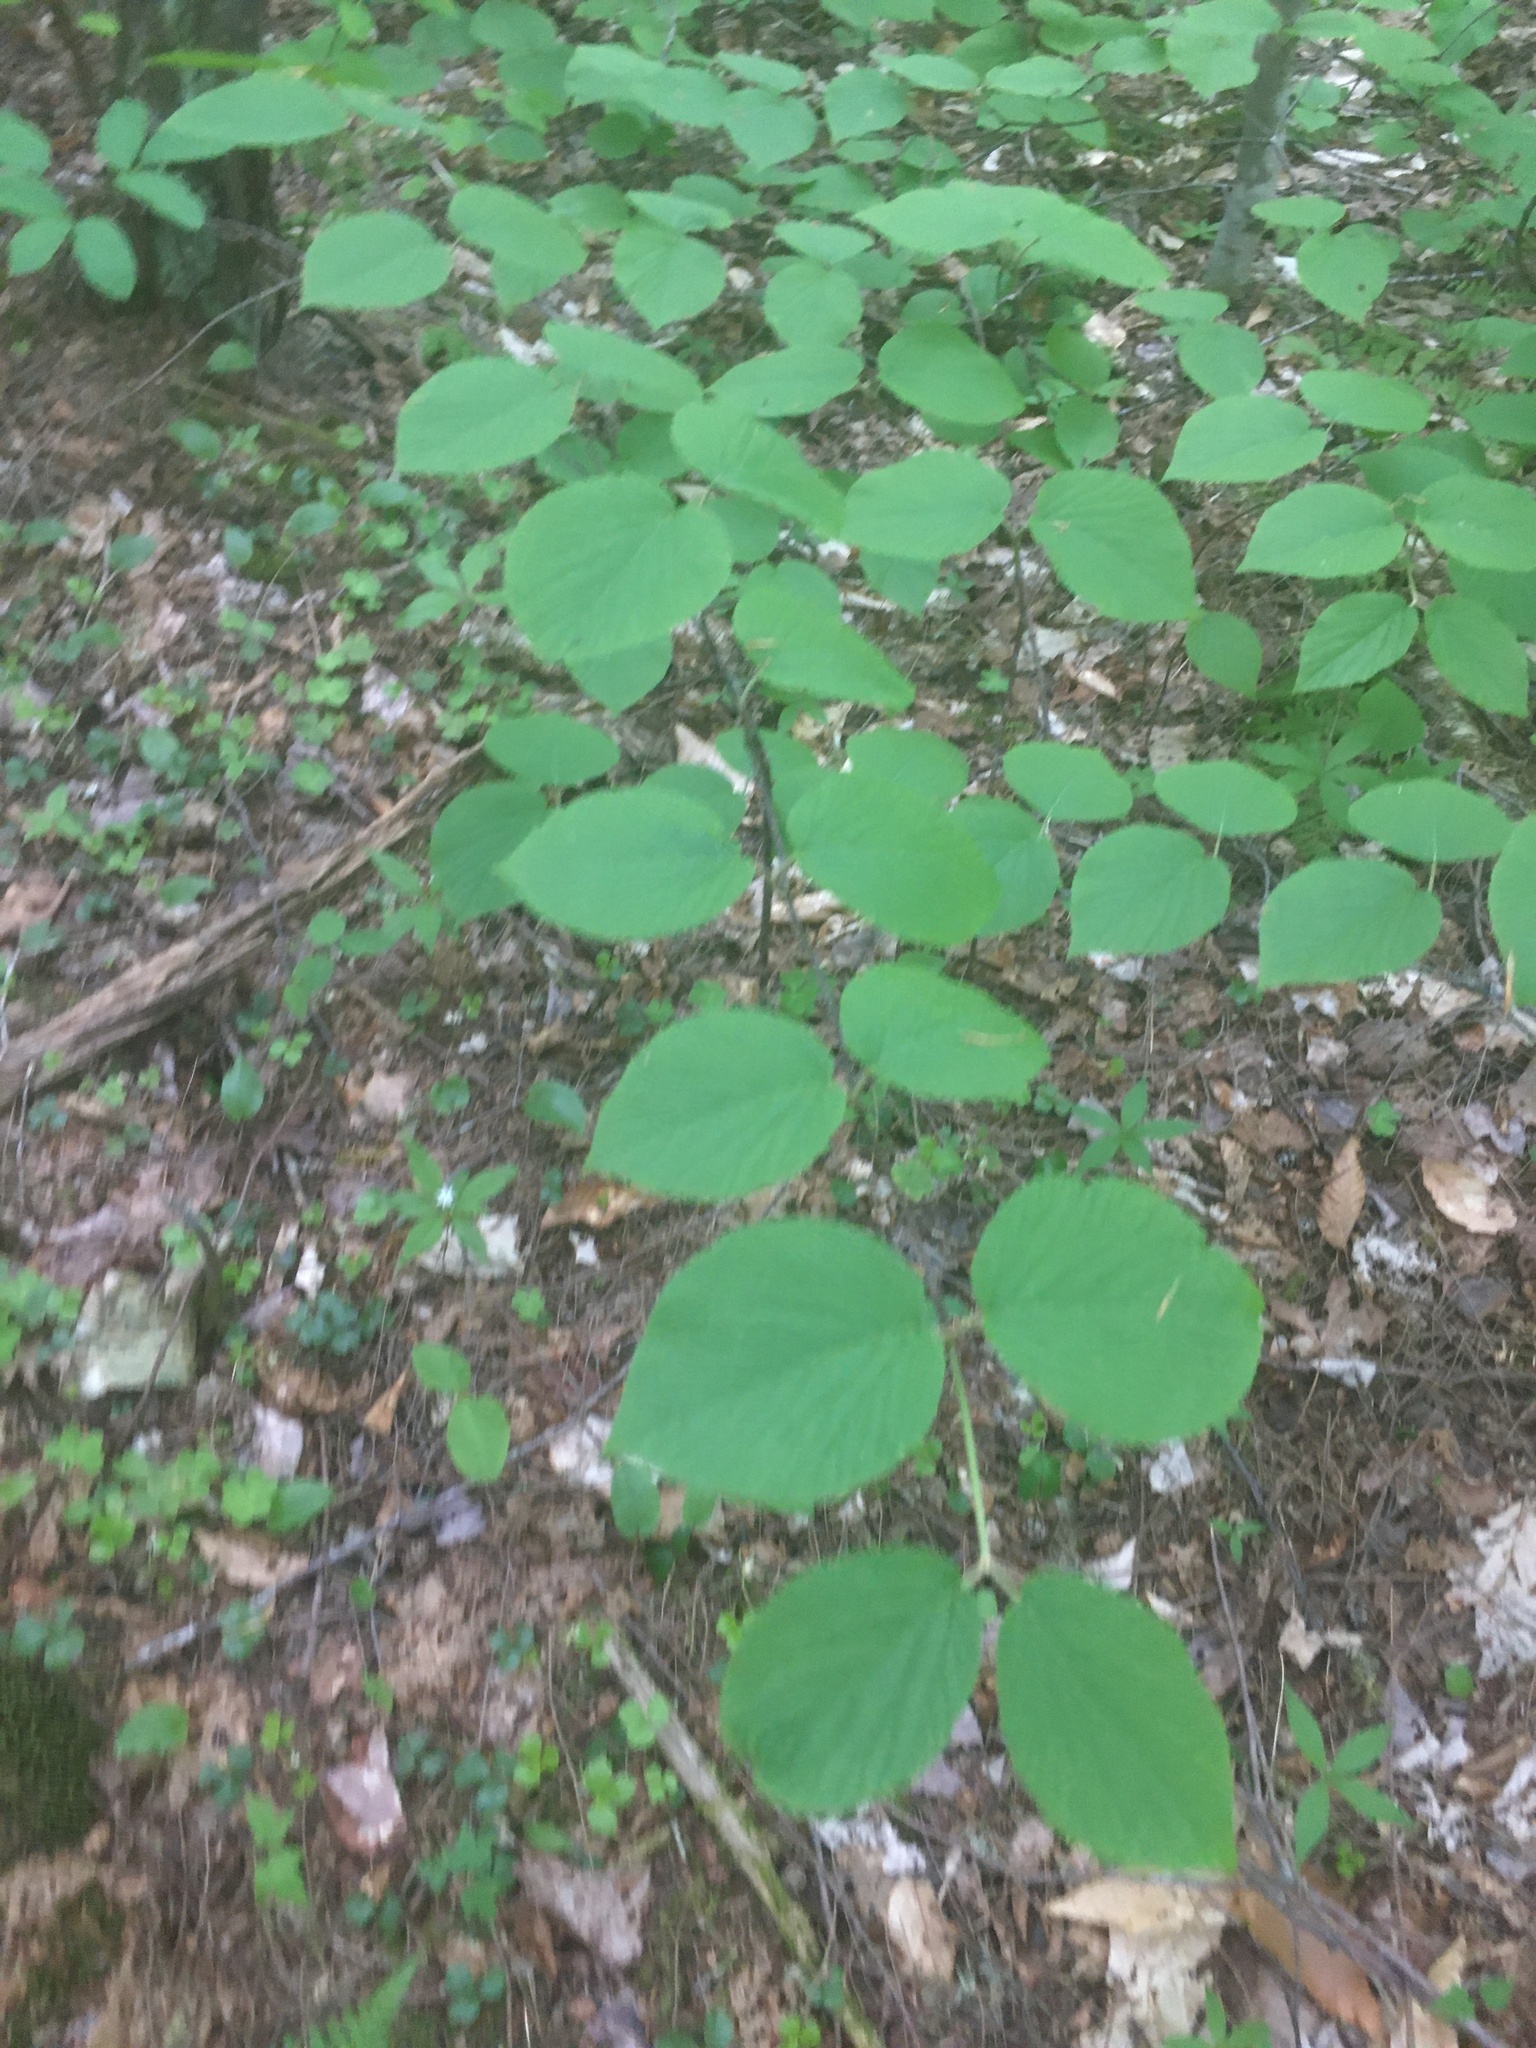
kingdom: Plantae
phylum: Tracheophyta
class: Magnoliopsida
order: Dipsacales
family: Viburnaceae
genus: Viburnum
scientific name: Viburnum lantanoides
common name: Hobblebush
